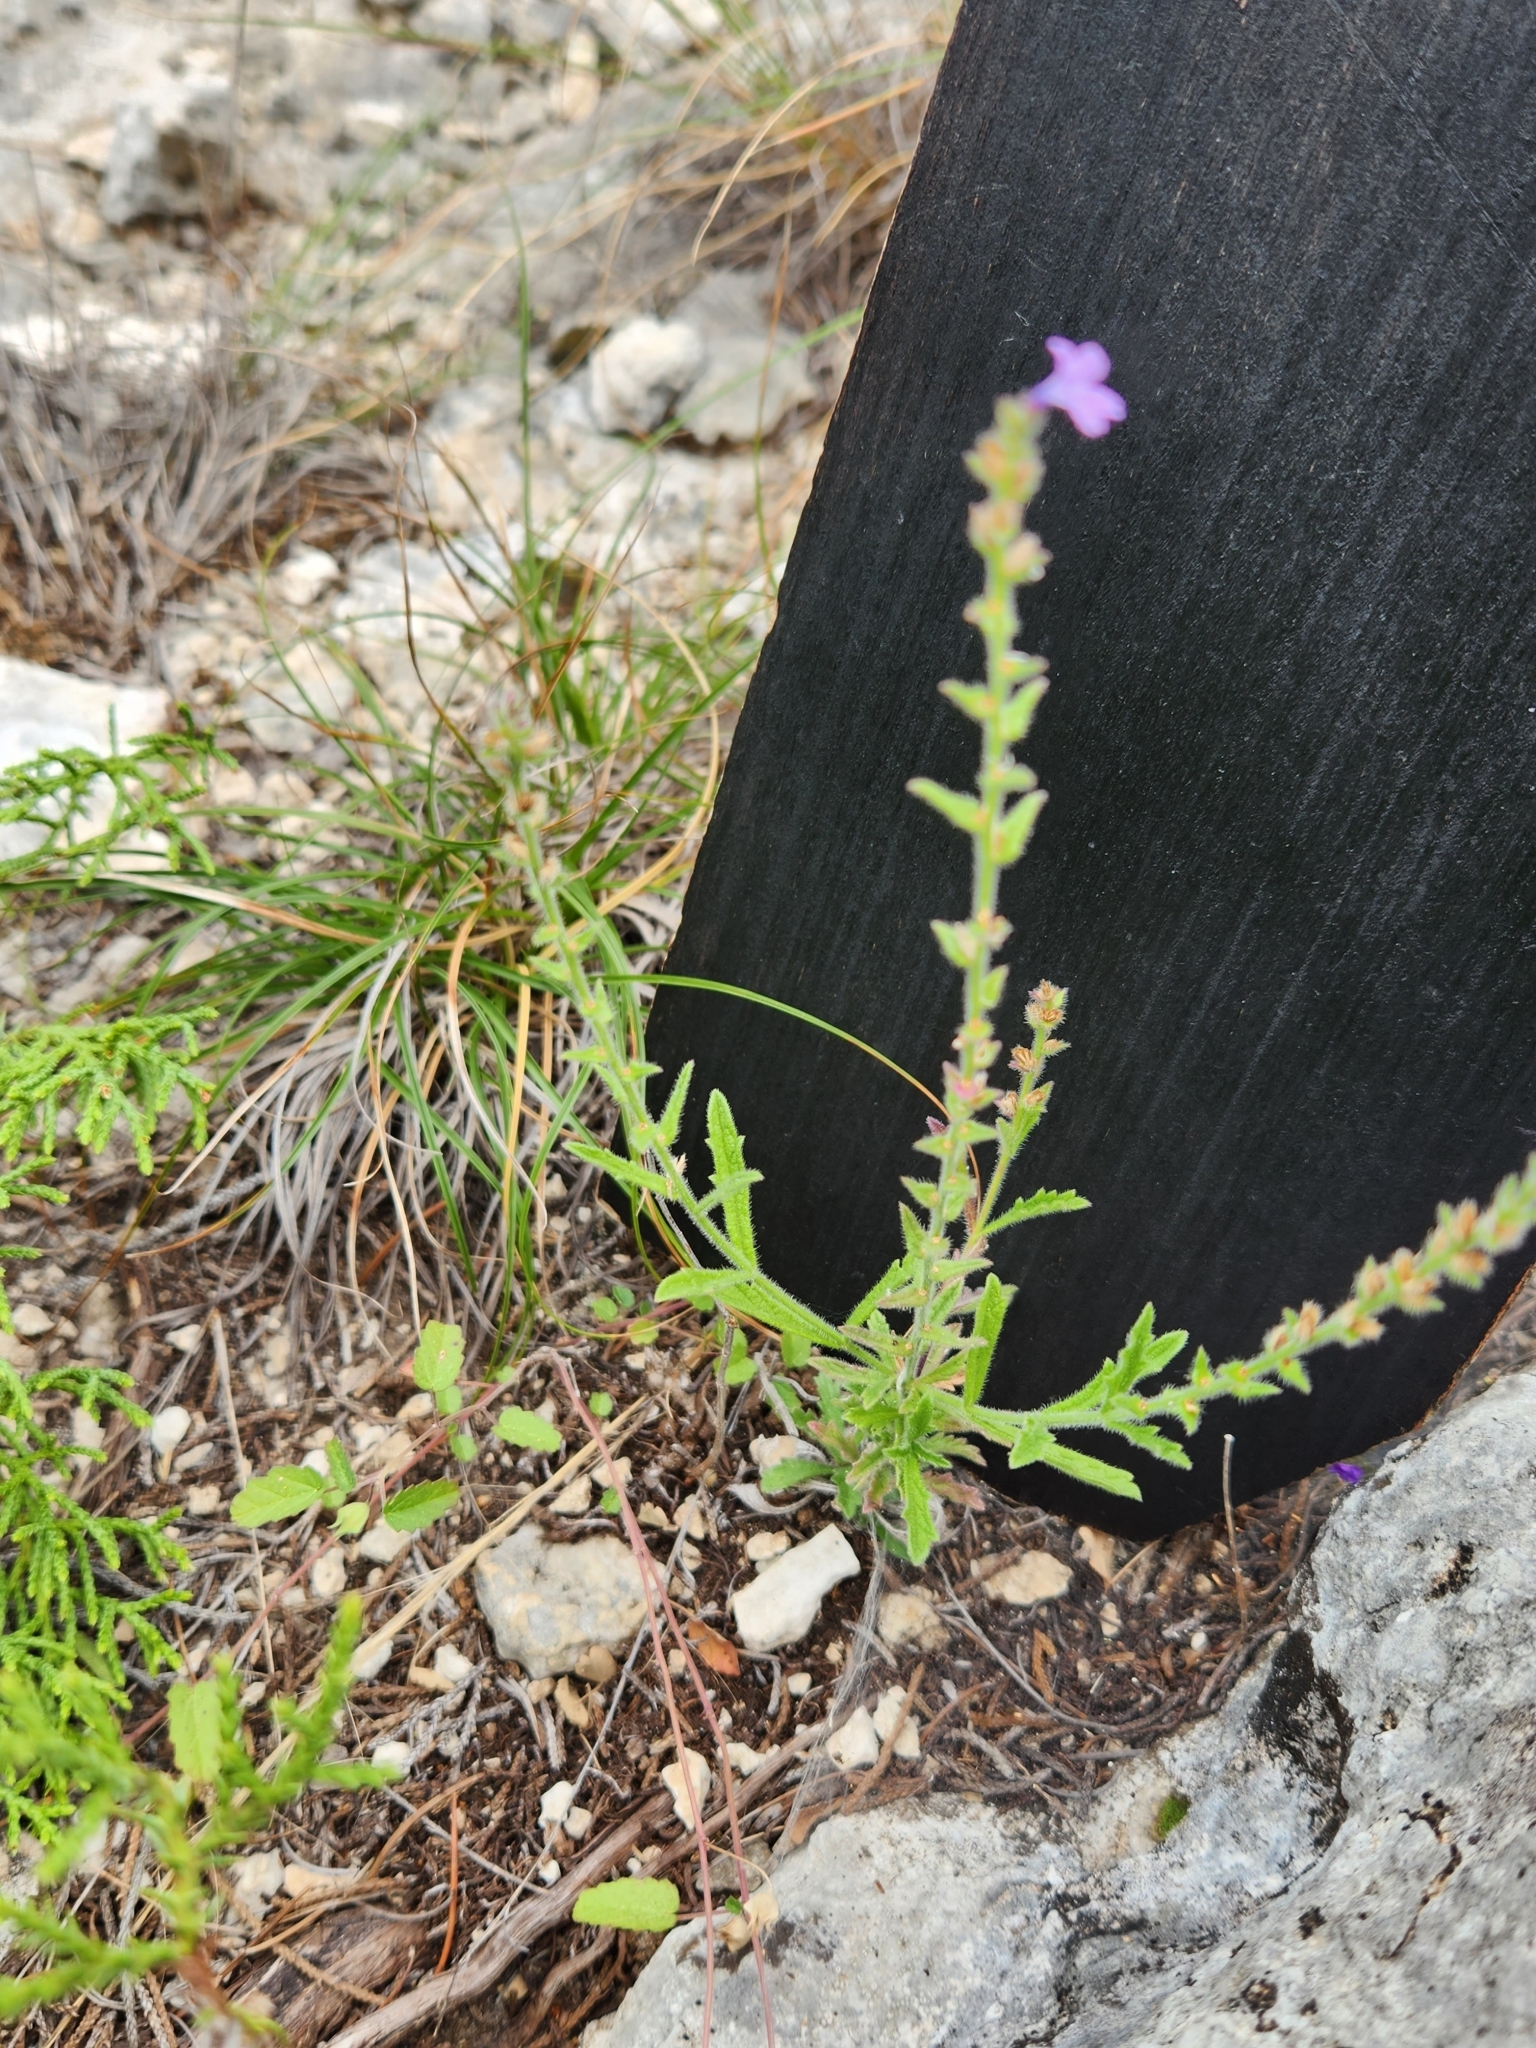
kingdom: Plantae
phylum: Tracheophyta
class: Magnoliopsida
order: Lamiales
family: Verbenaceae
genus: Verbena
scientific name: Verbena canescens
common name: Gray vervain
